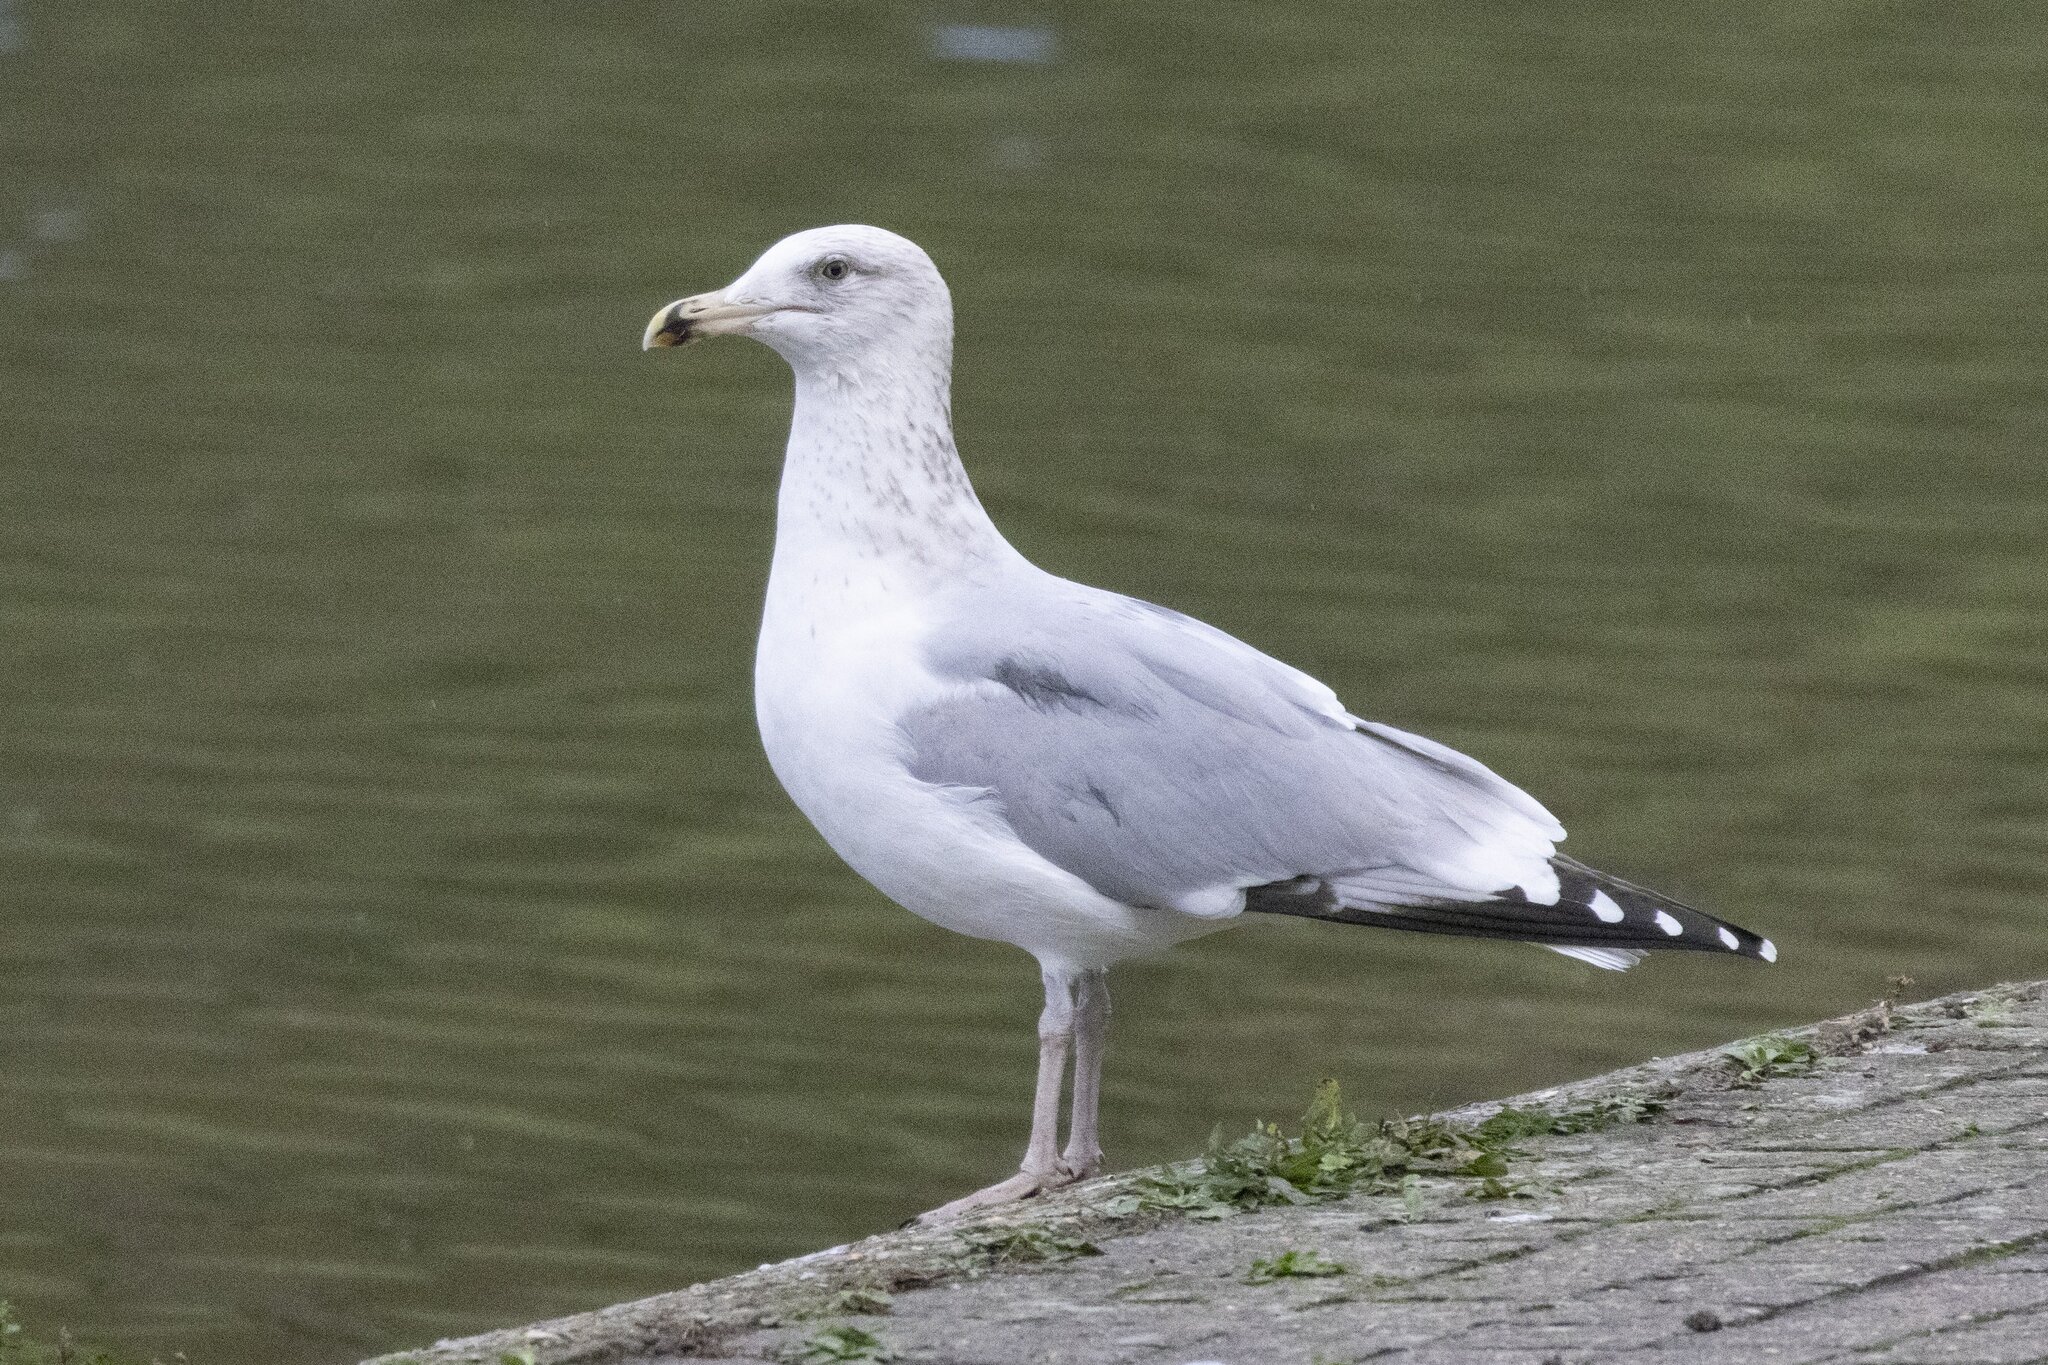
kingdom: Animalia
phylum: Chordata
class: Aves
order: Charadriiformes
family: Laridae
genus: Larus
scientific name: Larus argentatus
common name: Herring gull
